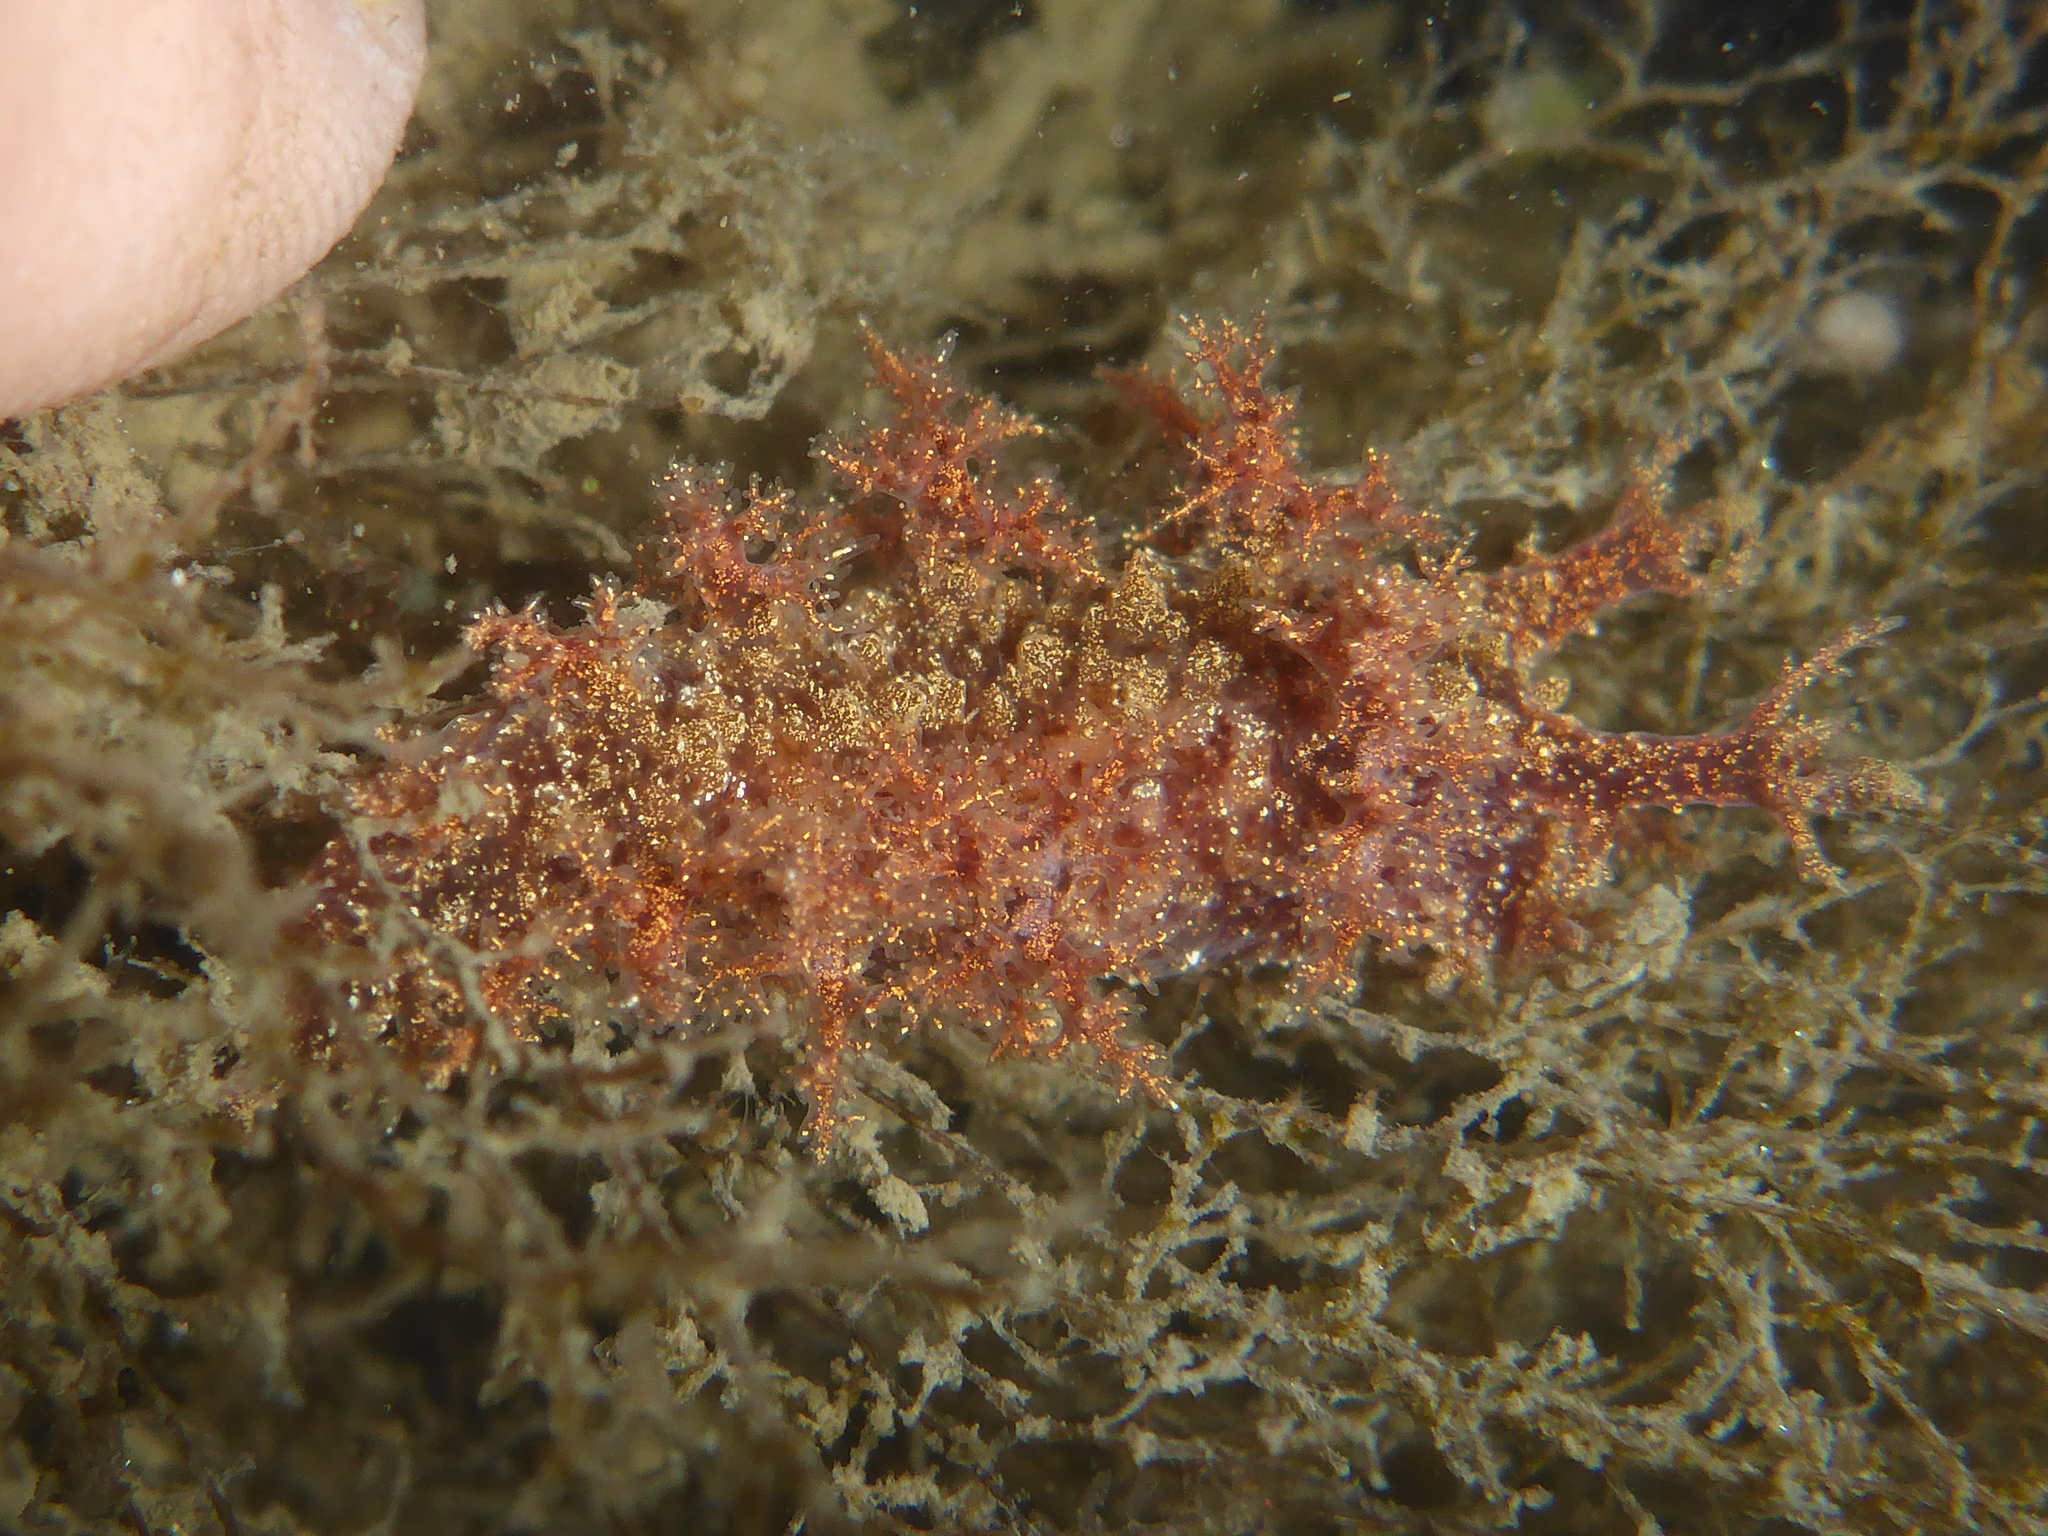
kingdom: Animalia
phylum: Mollusca
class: Gastropoda
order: Nudibranchia
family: Dendronotidae
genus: Dendronotus
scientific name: Dendronotus venustus
